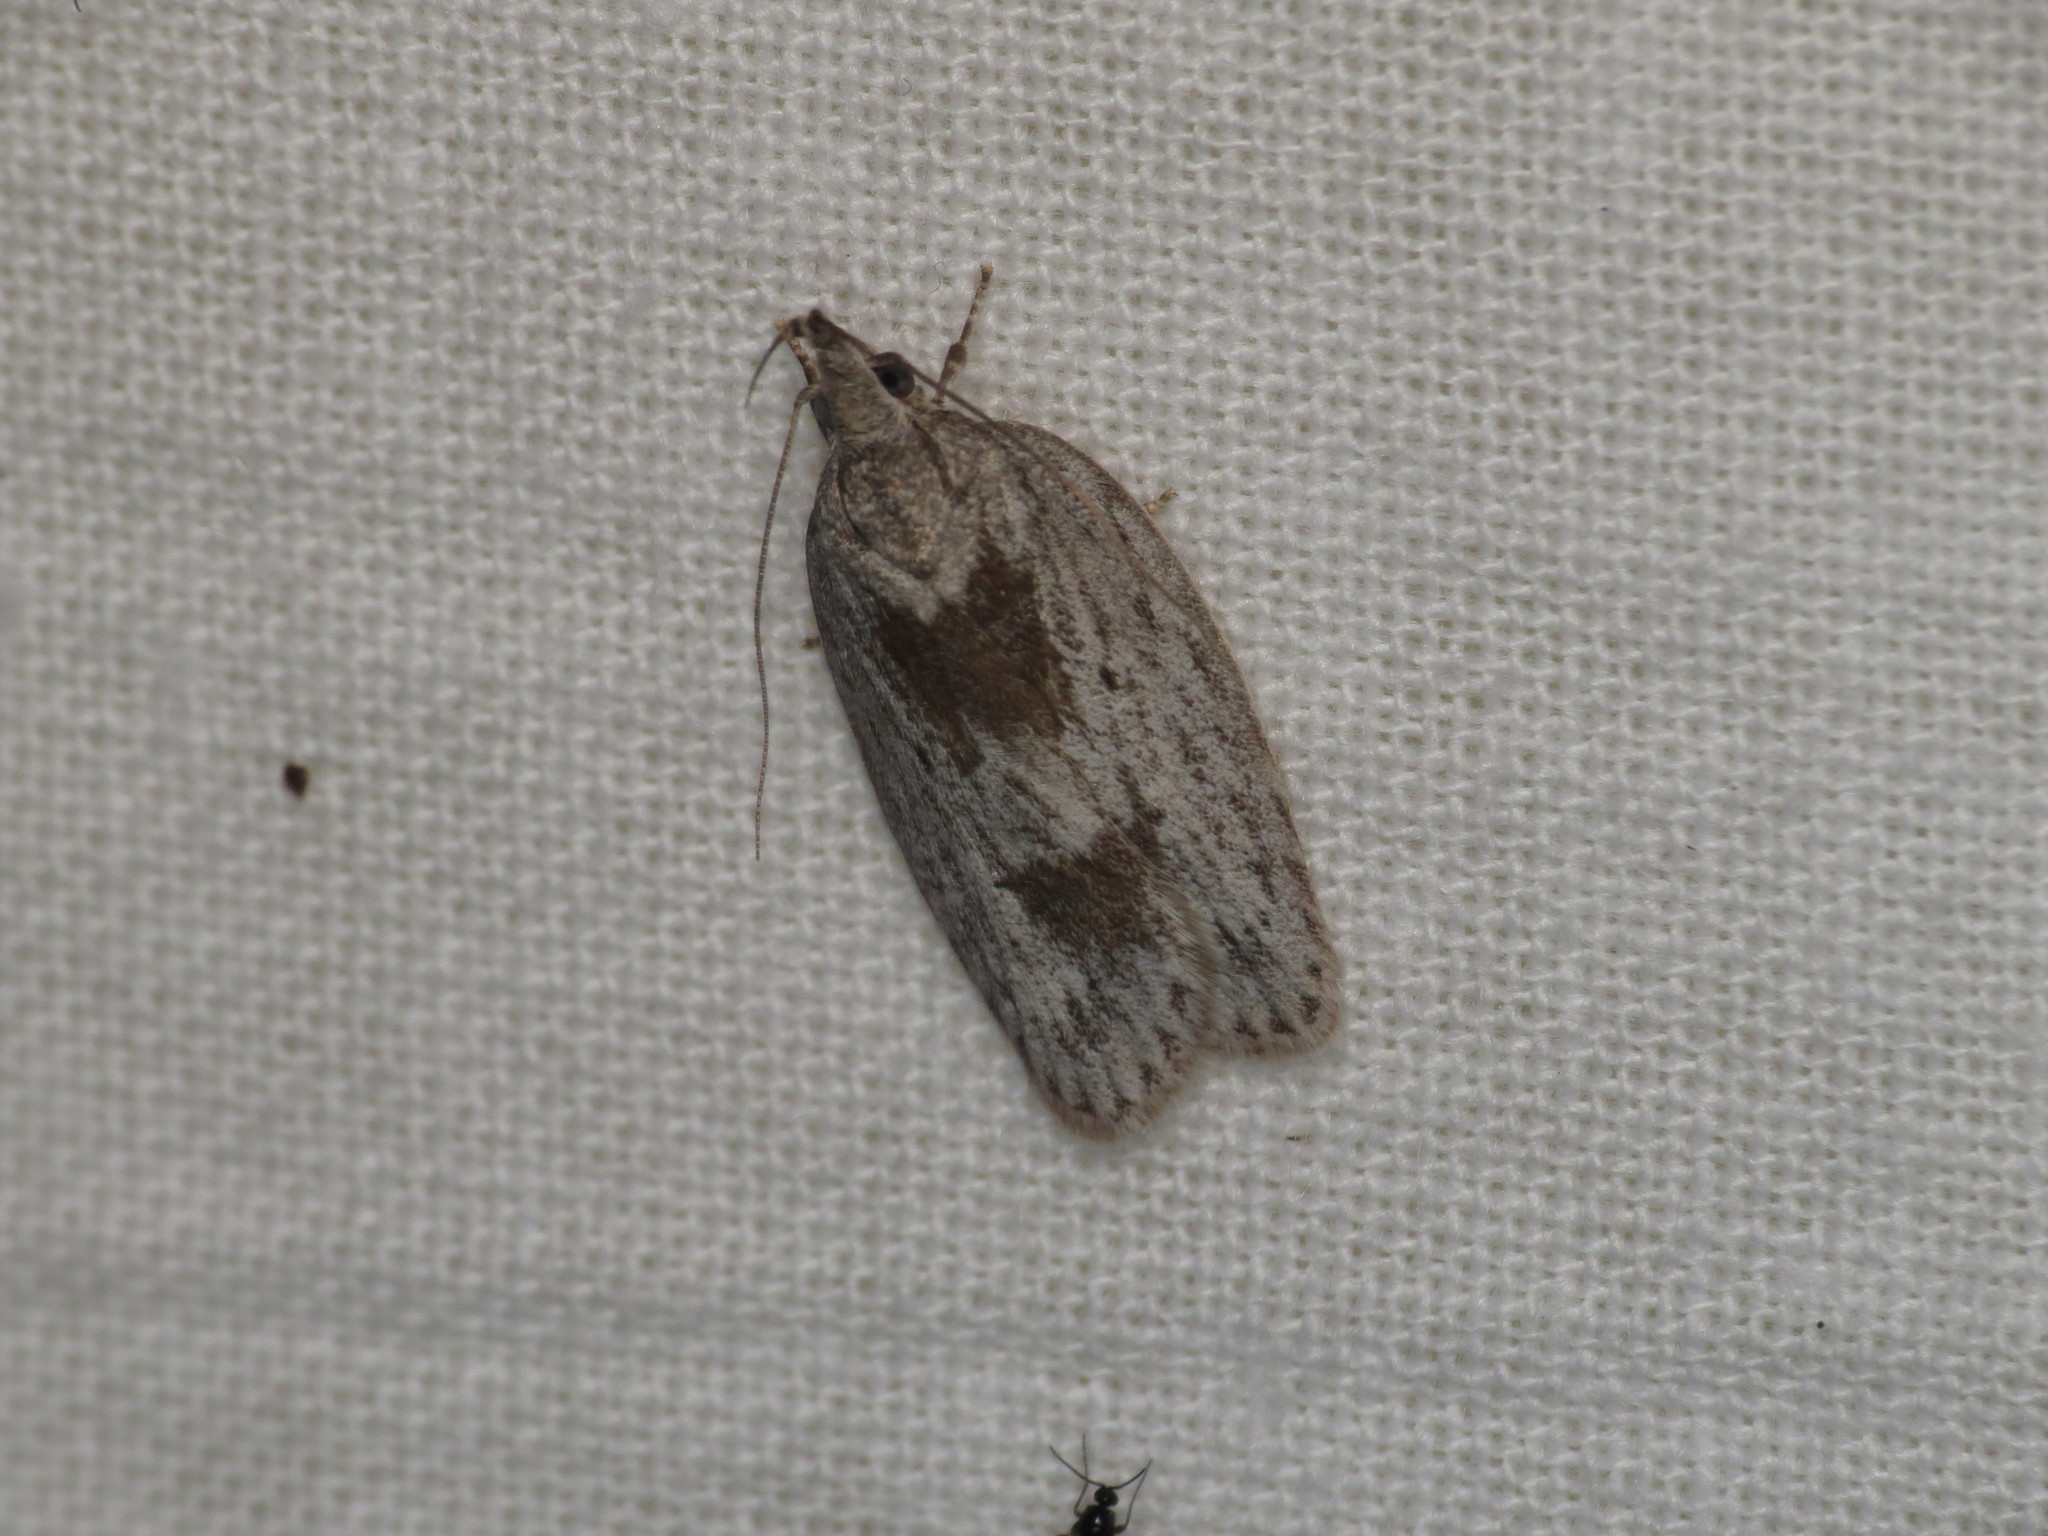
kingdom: Animalia
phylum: Arthropoda
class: Insecta
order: Lepidoptera
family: Depressariidae
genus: Pedois
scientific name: Pedois lewinella
